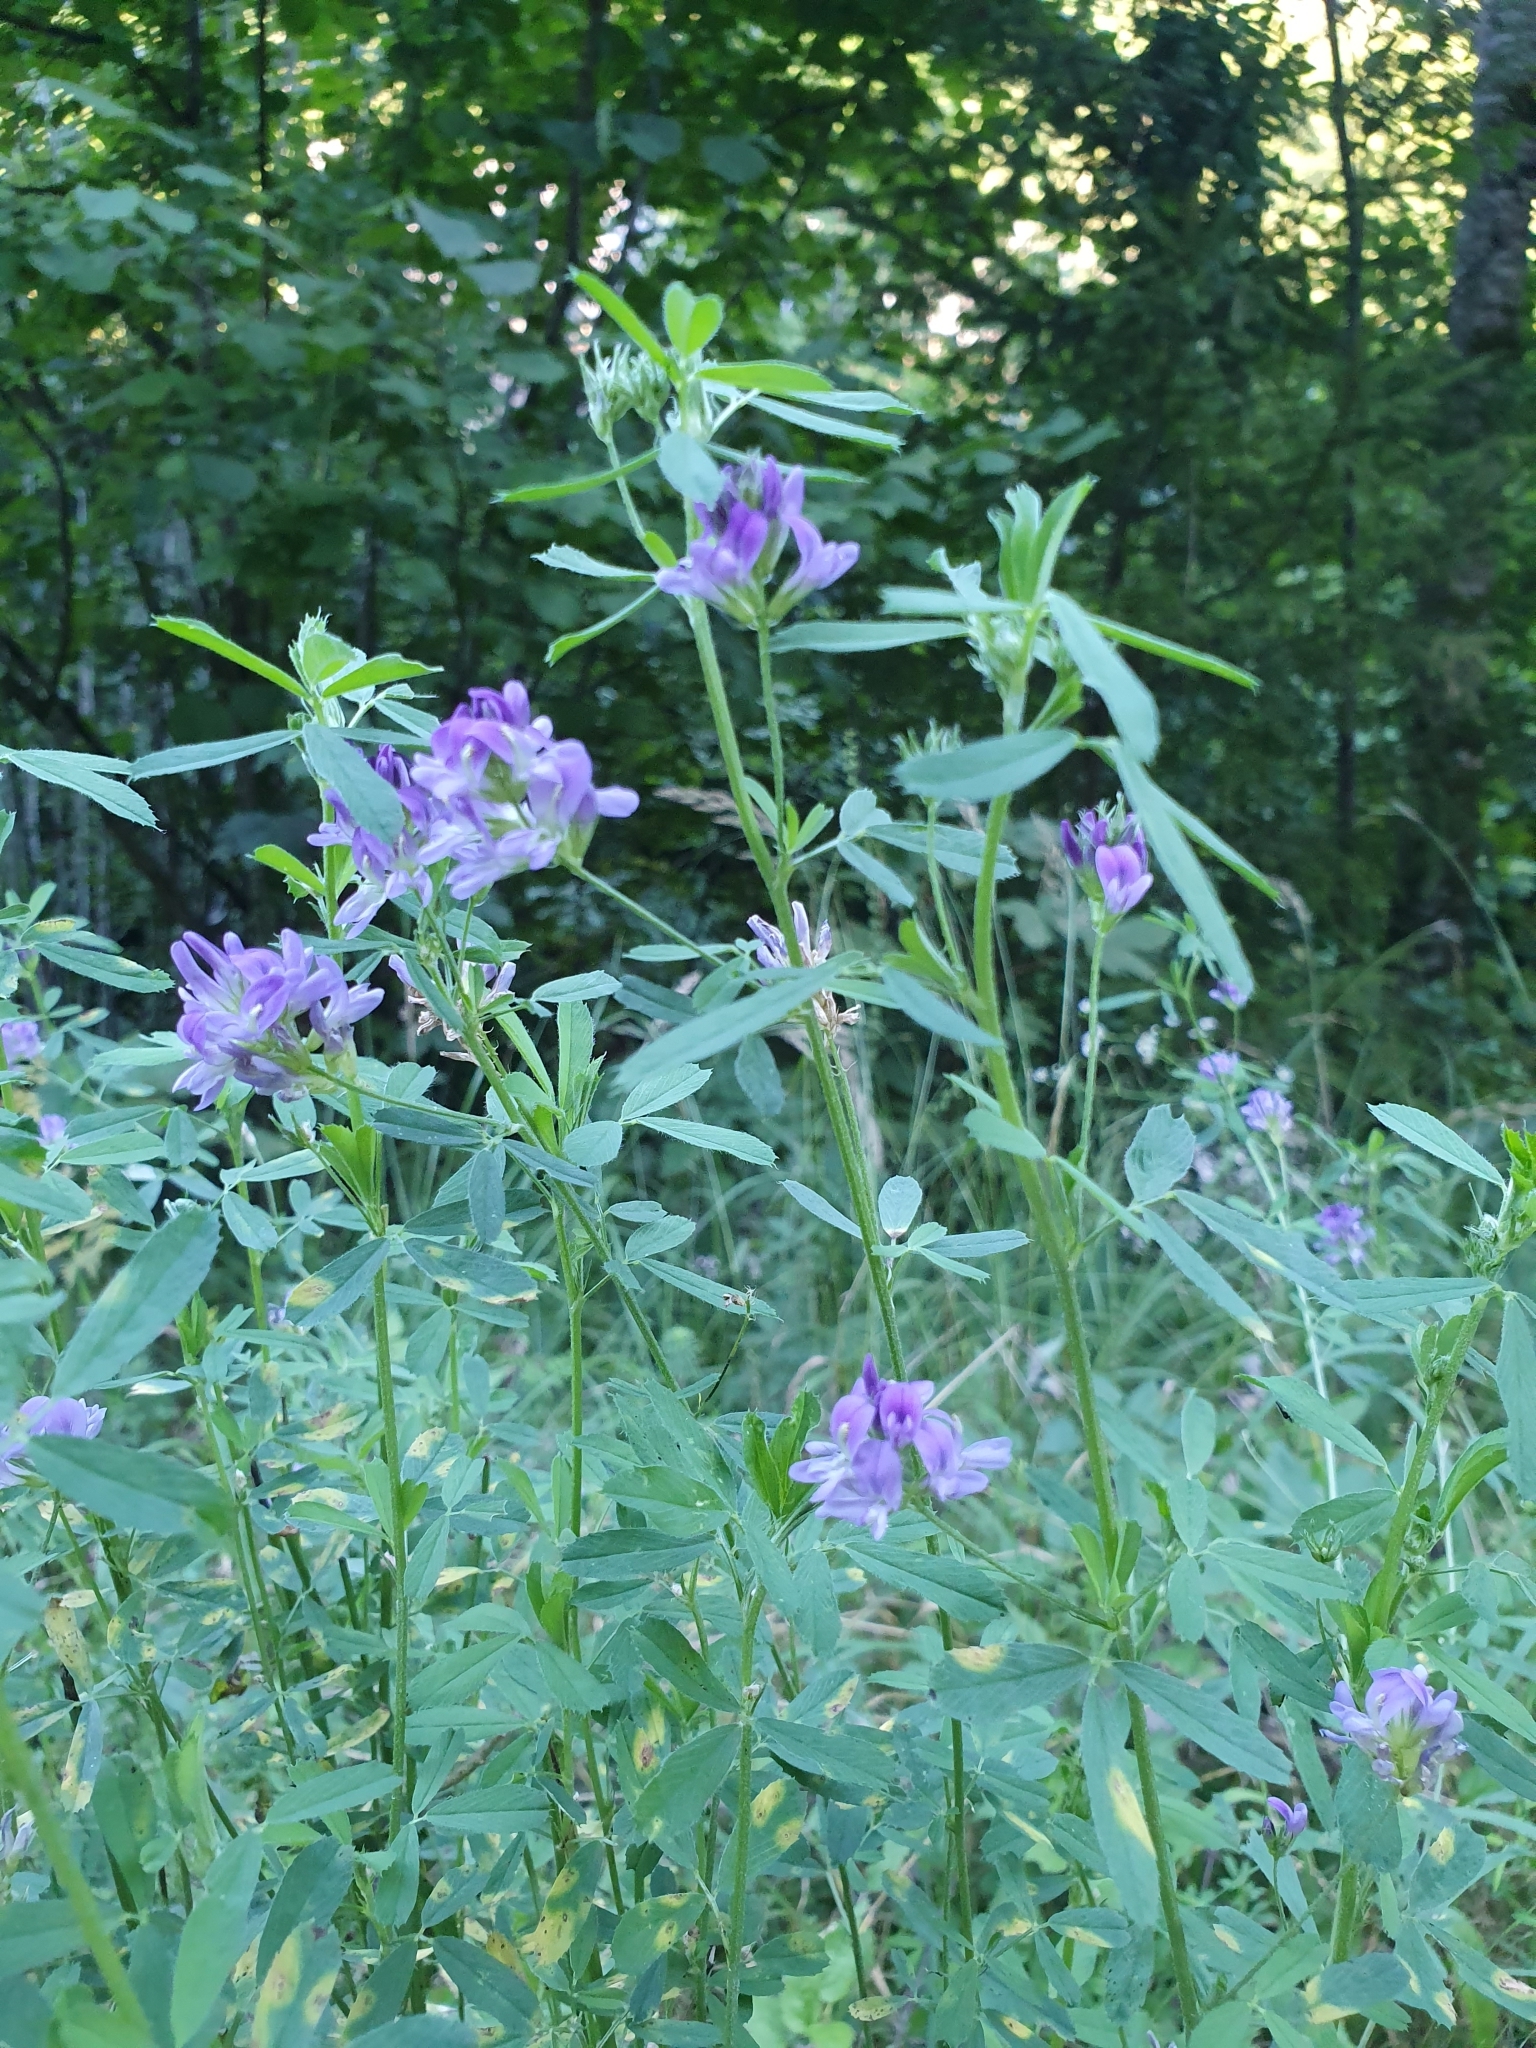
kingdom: Plantae
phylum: Tracheophyta
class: Magnoliopsida
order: Fabales
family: Fabaceae
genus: Medicago
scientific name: Medicago sativa
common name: Alfalfa
